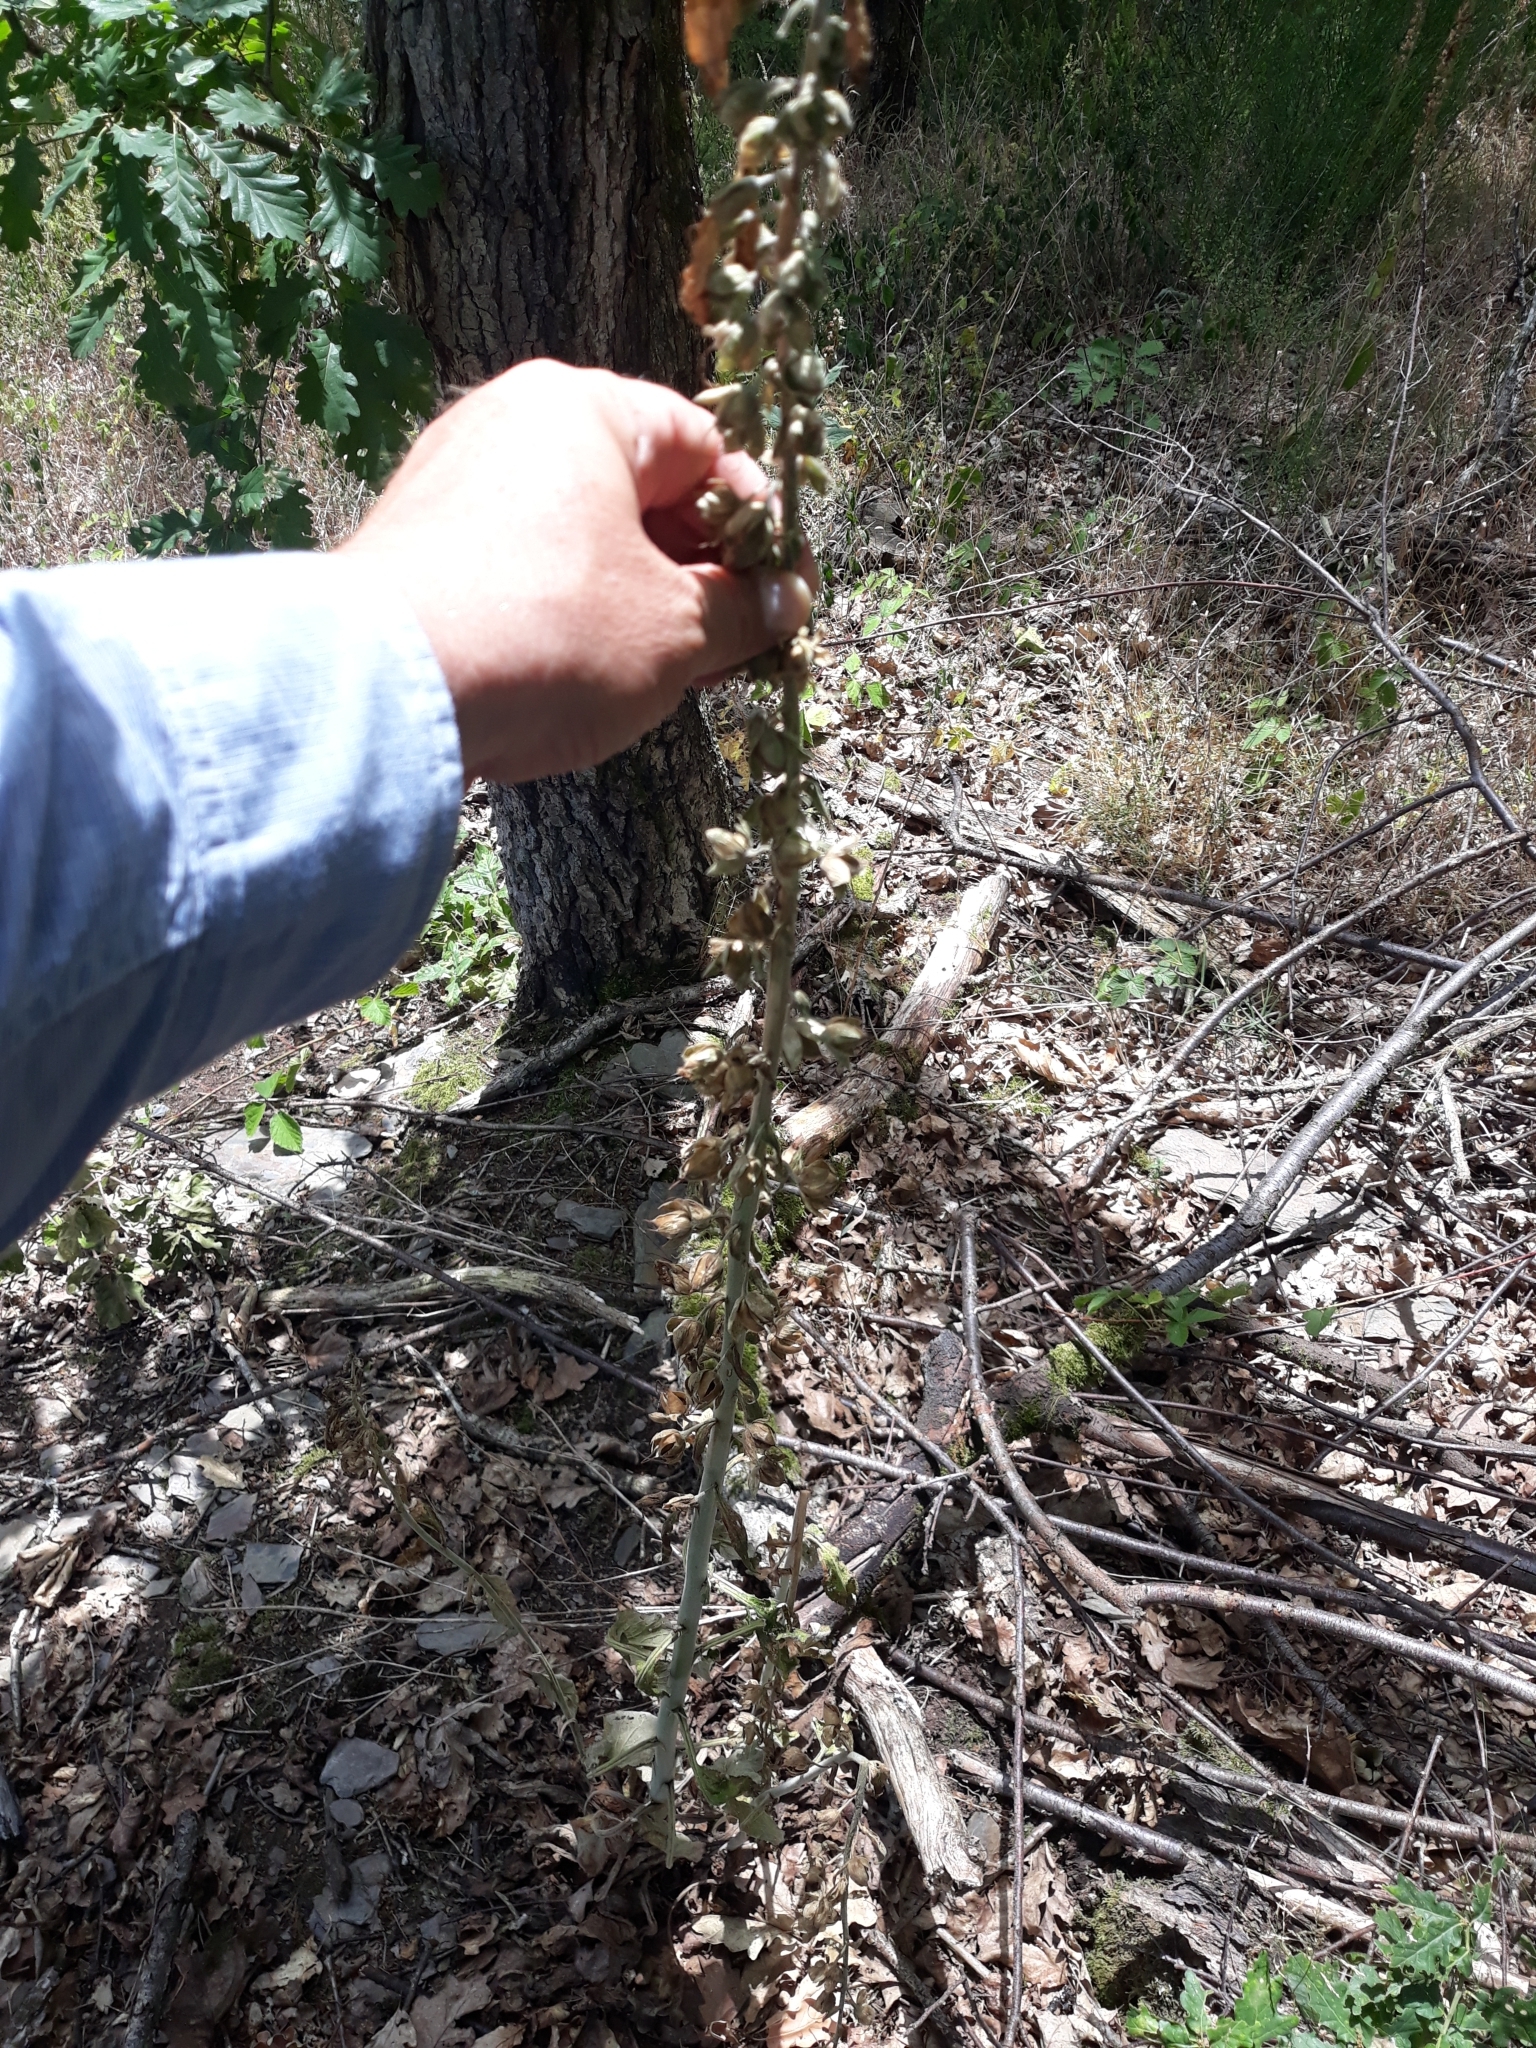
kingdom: Plantae
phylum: Tracheophyta
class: Magnoliopsida
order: Lamiales
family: Plantaginaceae
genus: Digitalis
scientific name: Digitalis purpurea
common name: Foxglove
